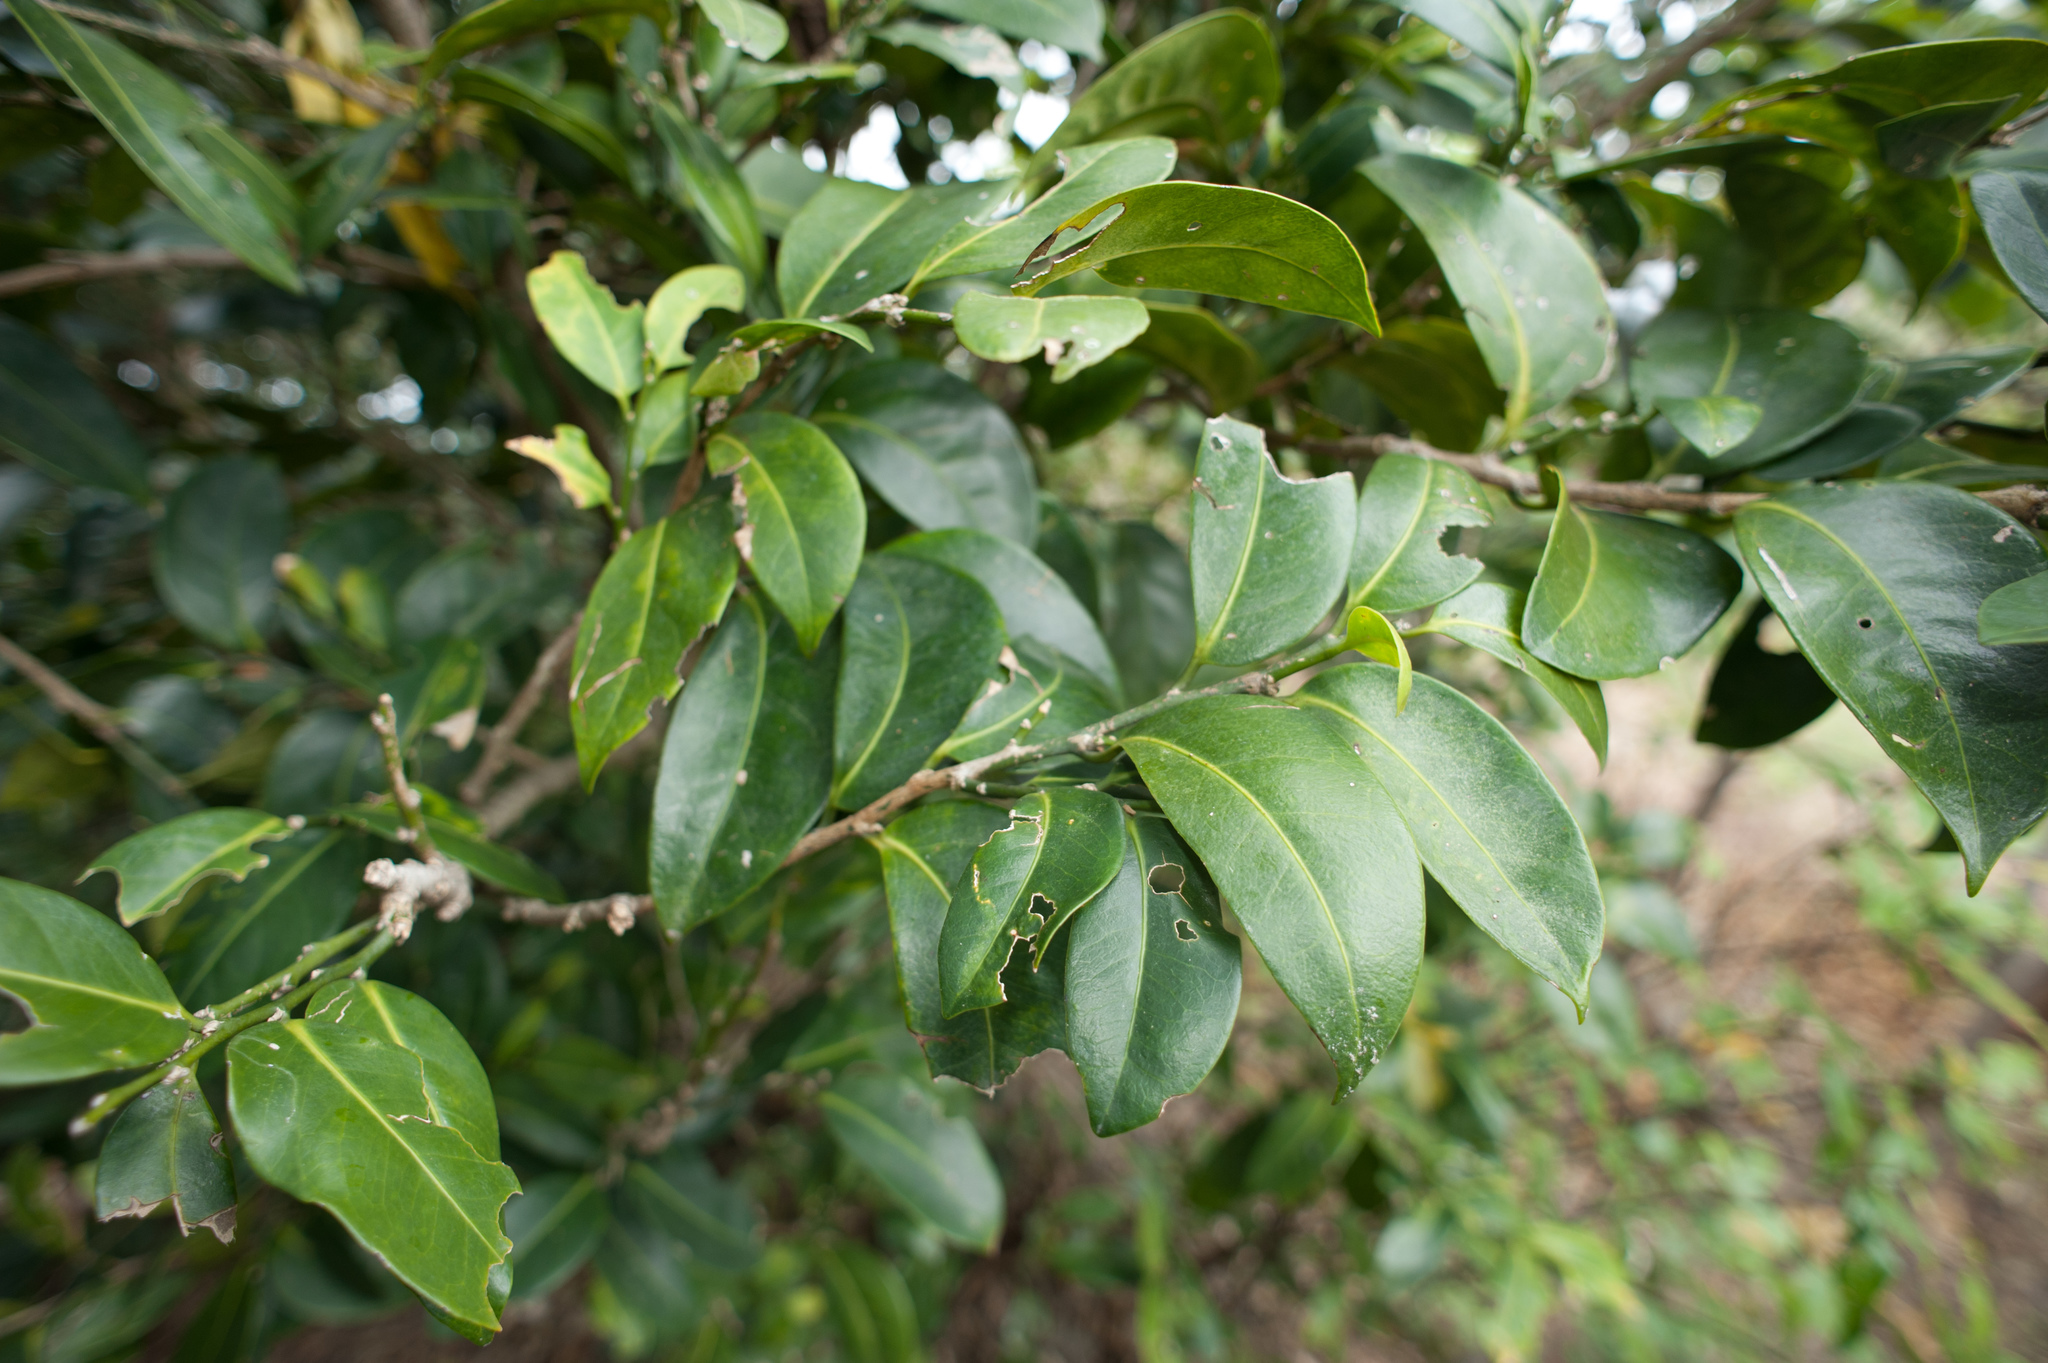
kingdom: Plantae
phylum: Tracheophyta
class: Magnoliopsida
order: Malpighiales
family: Putranjivaceae
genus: Drypetes
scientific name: Drypetes littoralis
